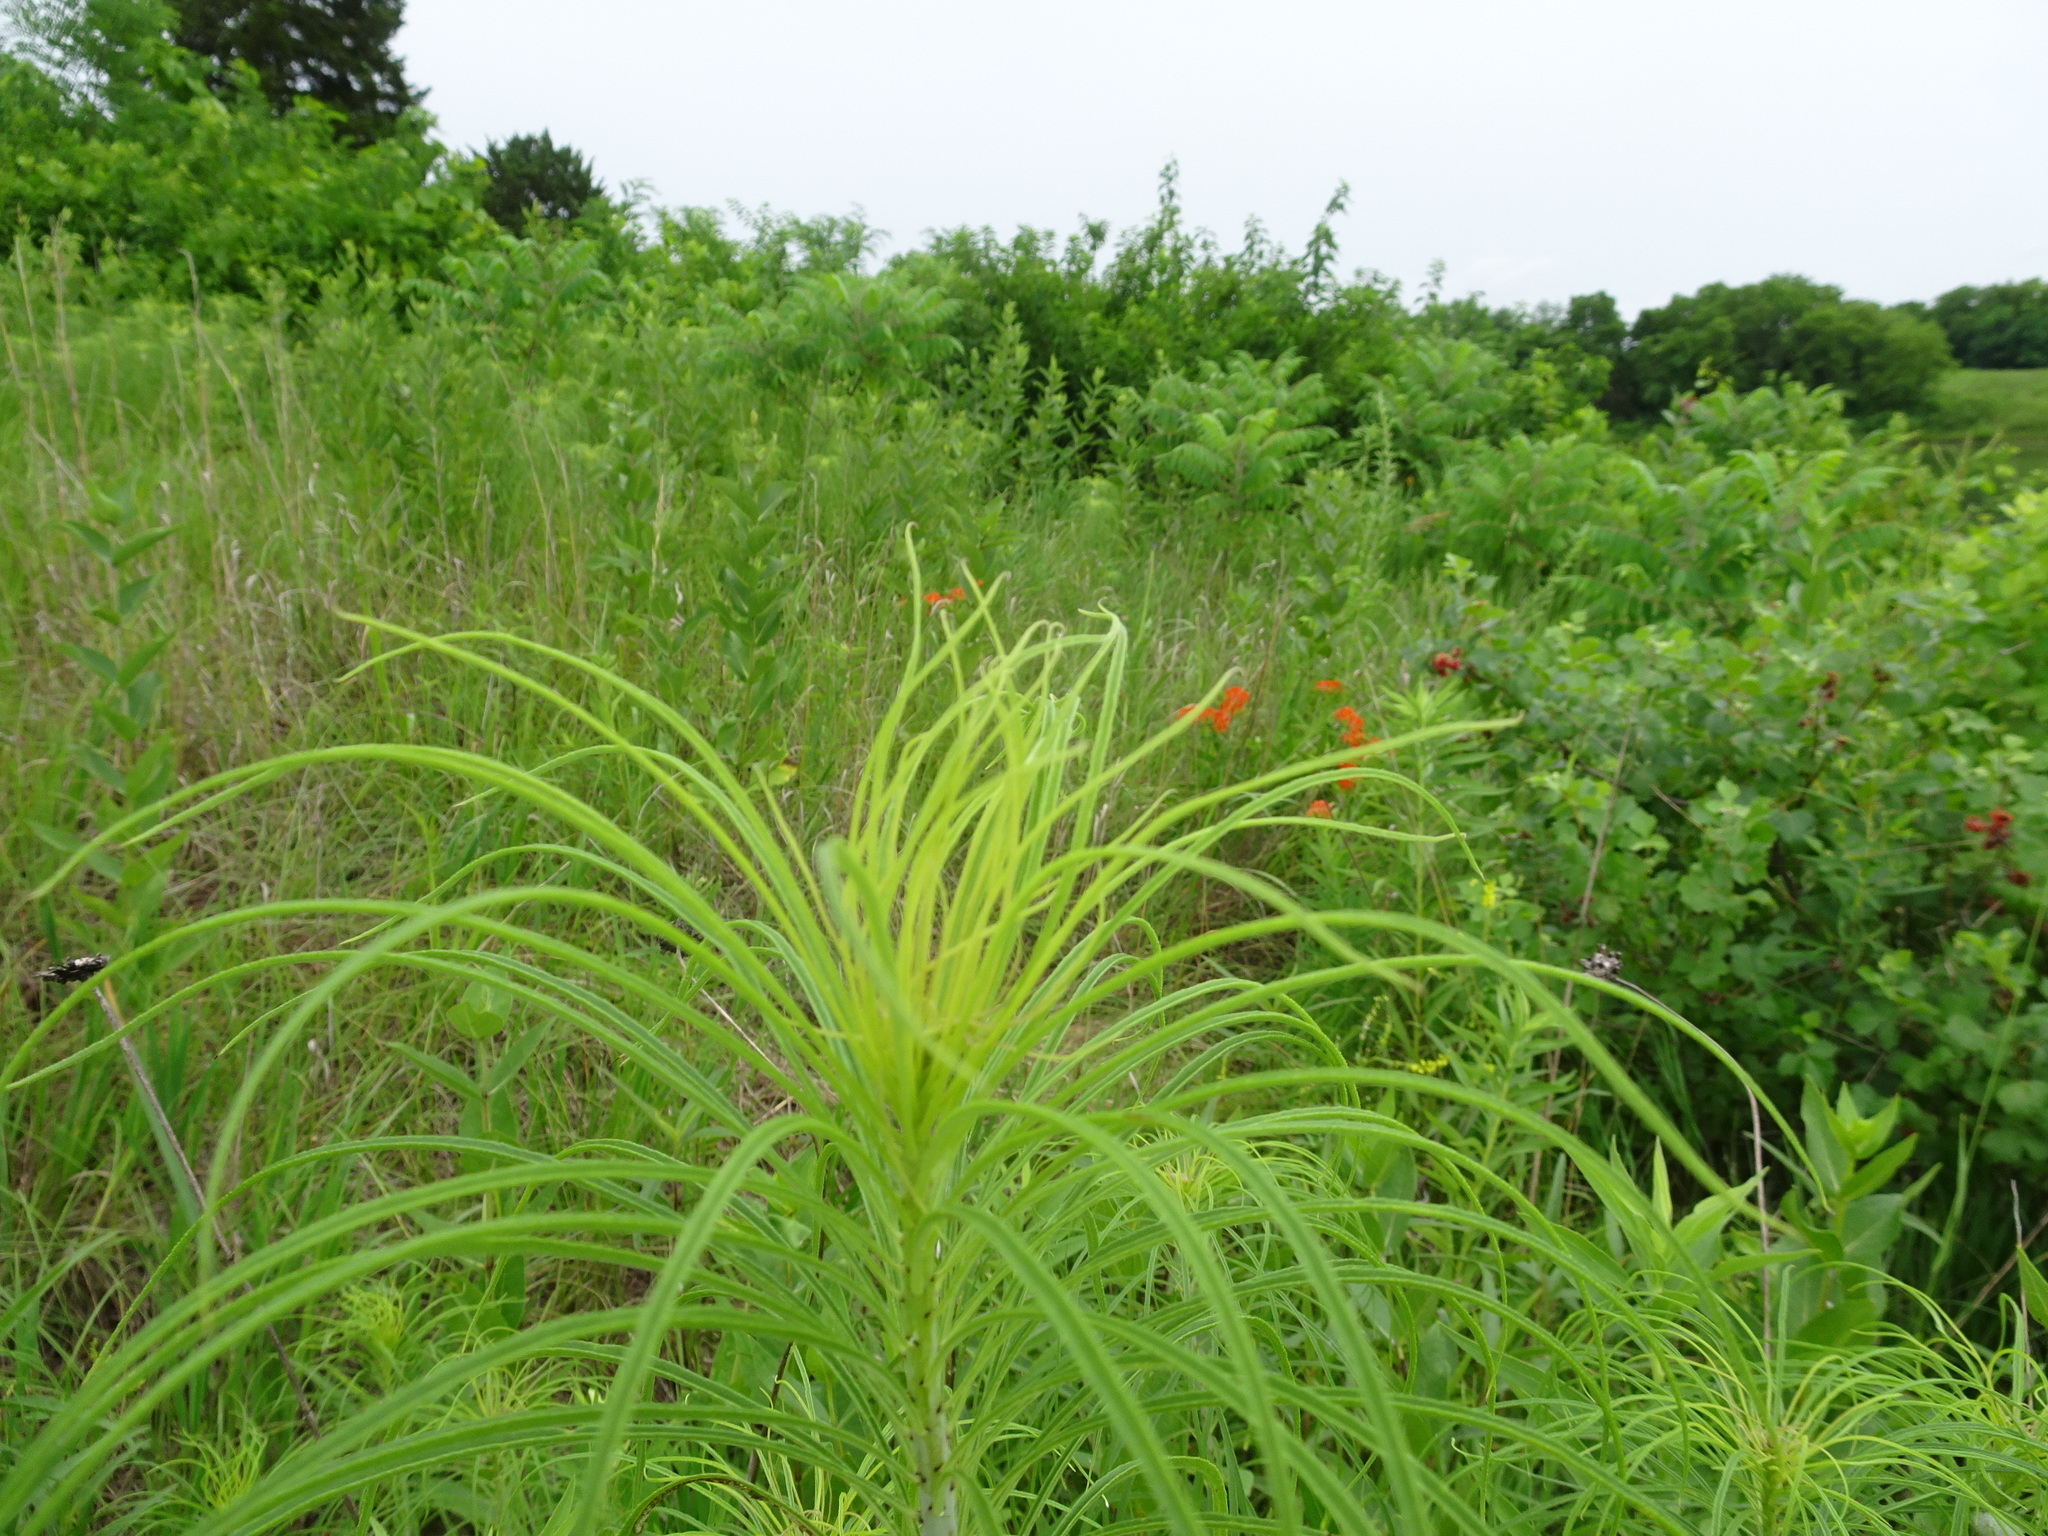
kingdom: Plantae
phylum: Tracheophyta
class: Magnoliopsida
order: Asterales
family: Asteraceae
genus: Helianthus
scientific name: Helianthus salicifolius
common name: Willowleaf sunflower
